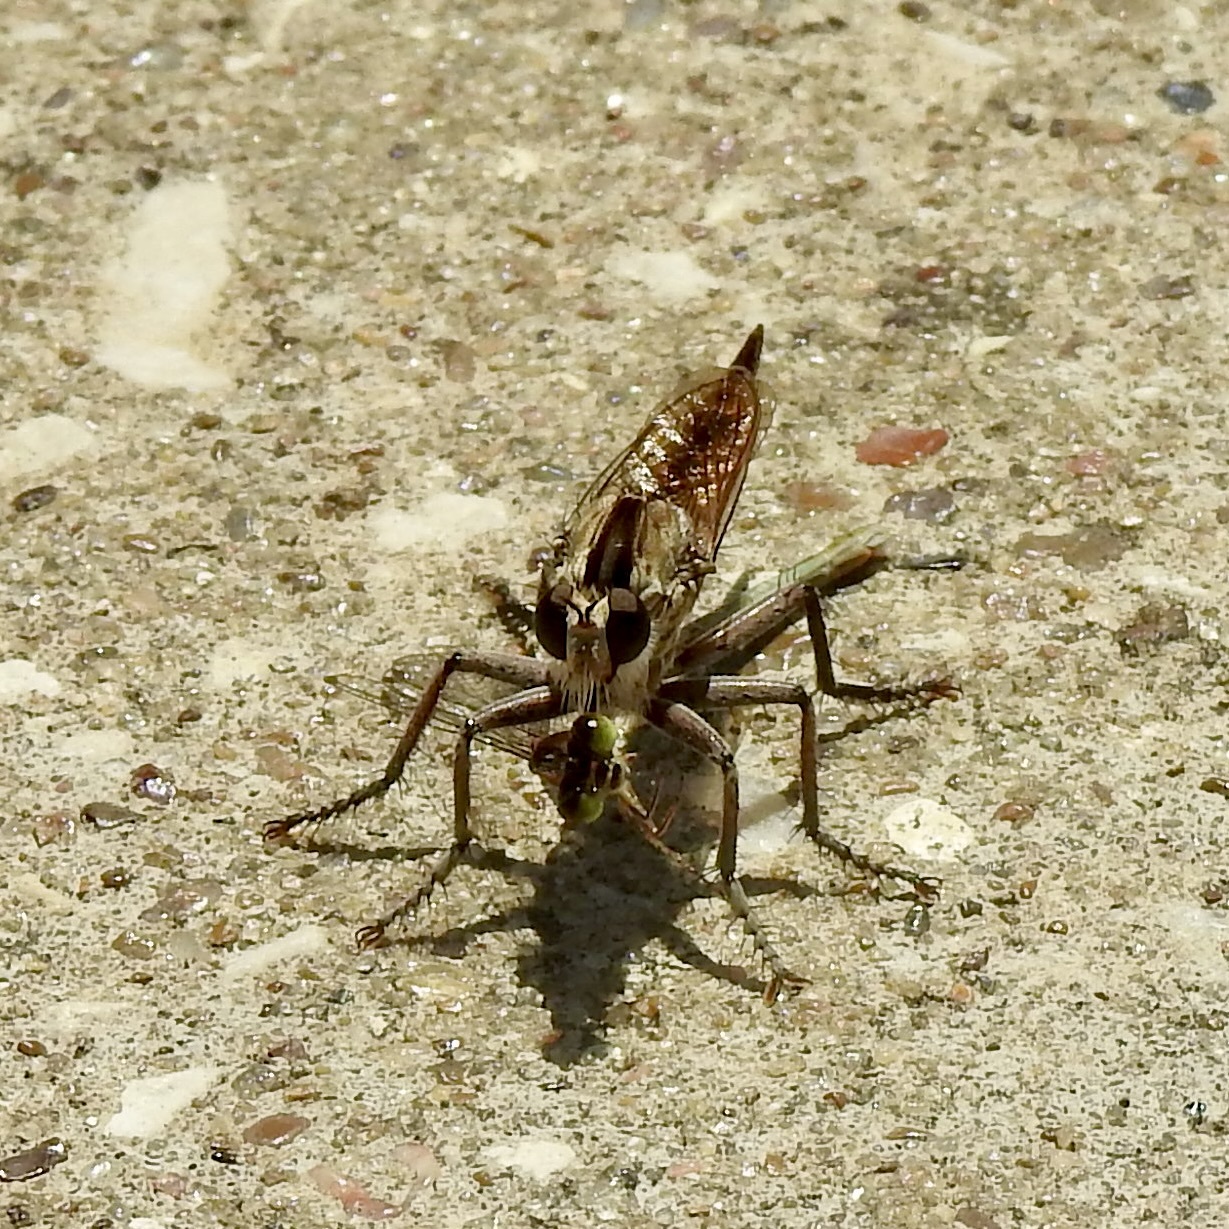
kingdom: Animalia
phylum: Arthropoda
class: Insecta
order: Diptera
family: Asilidae
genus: Triorla
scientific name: Triorla interrupta
